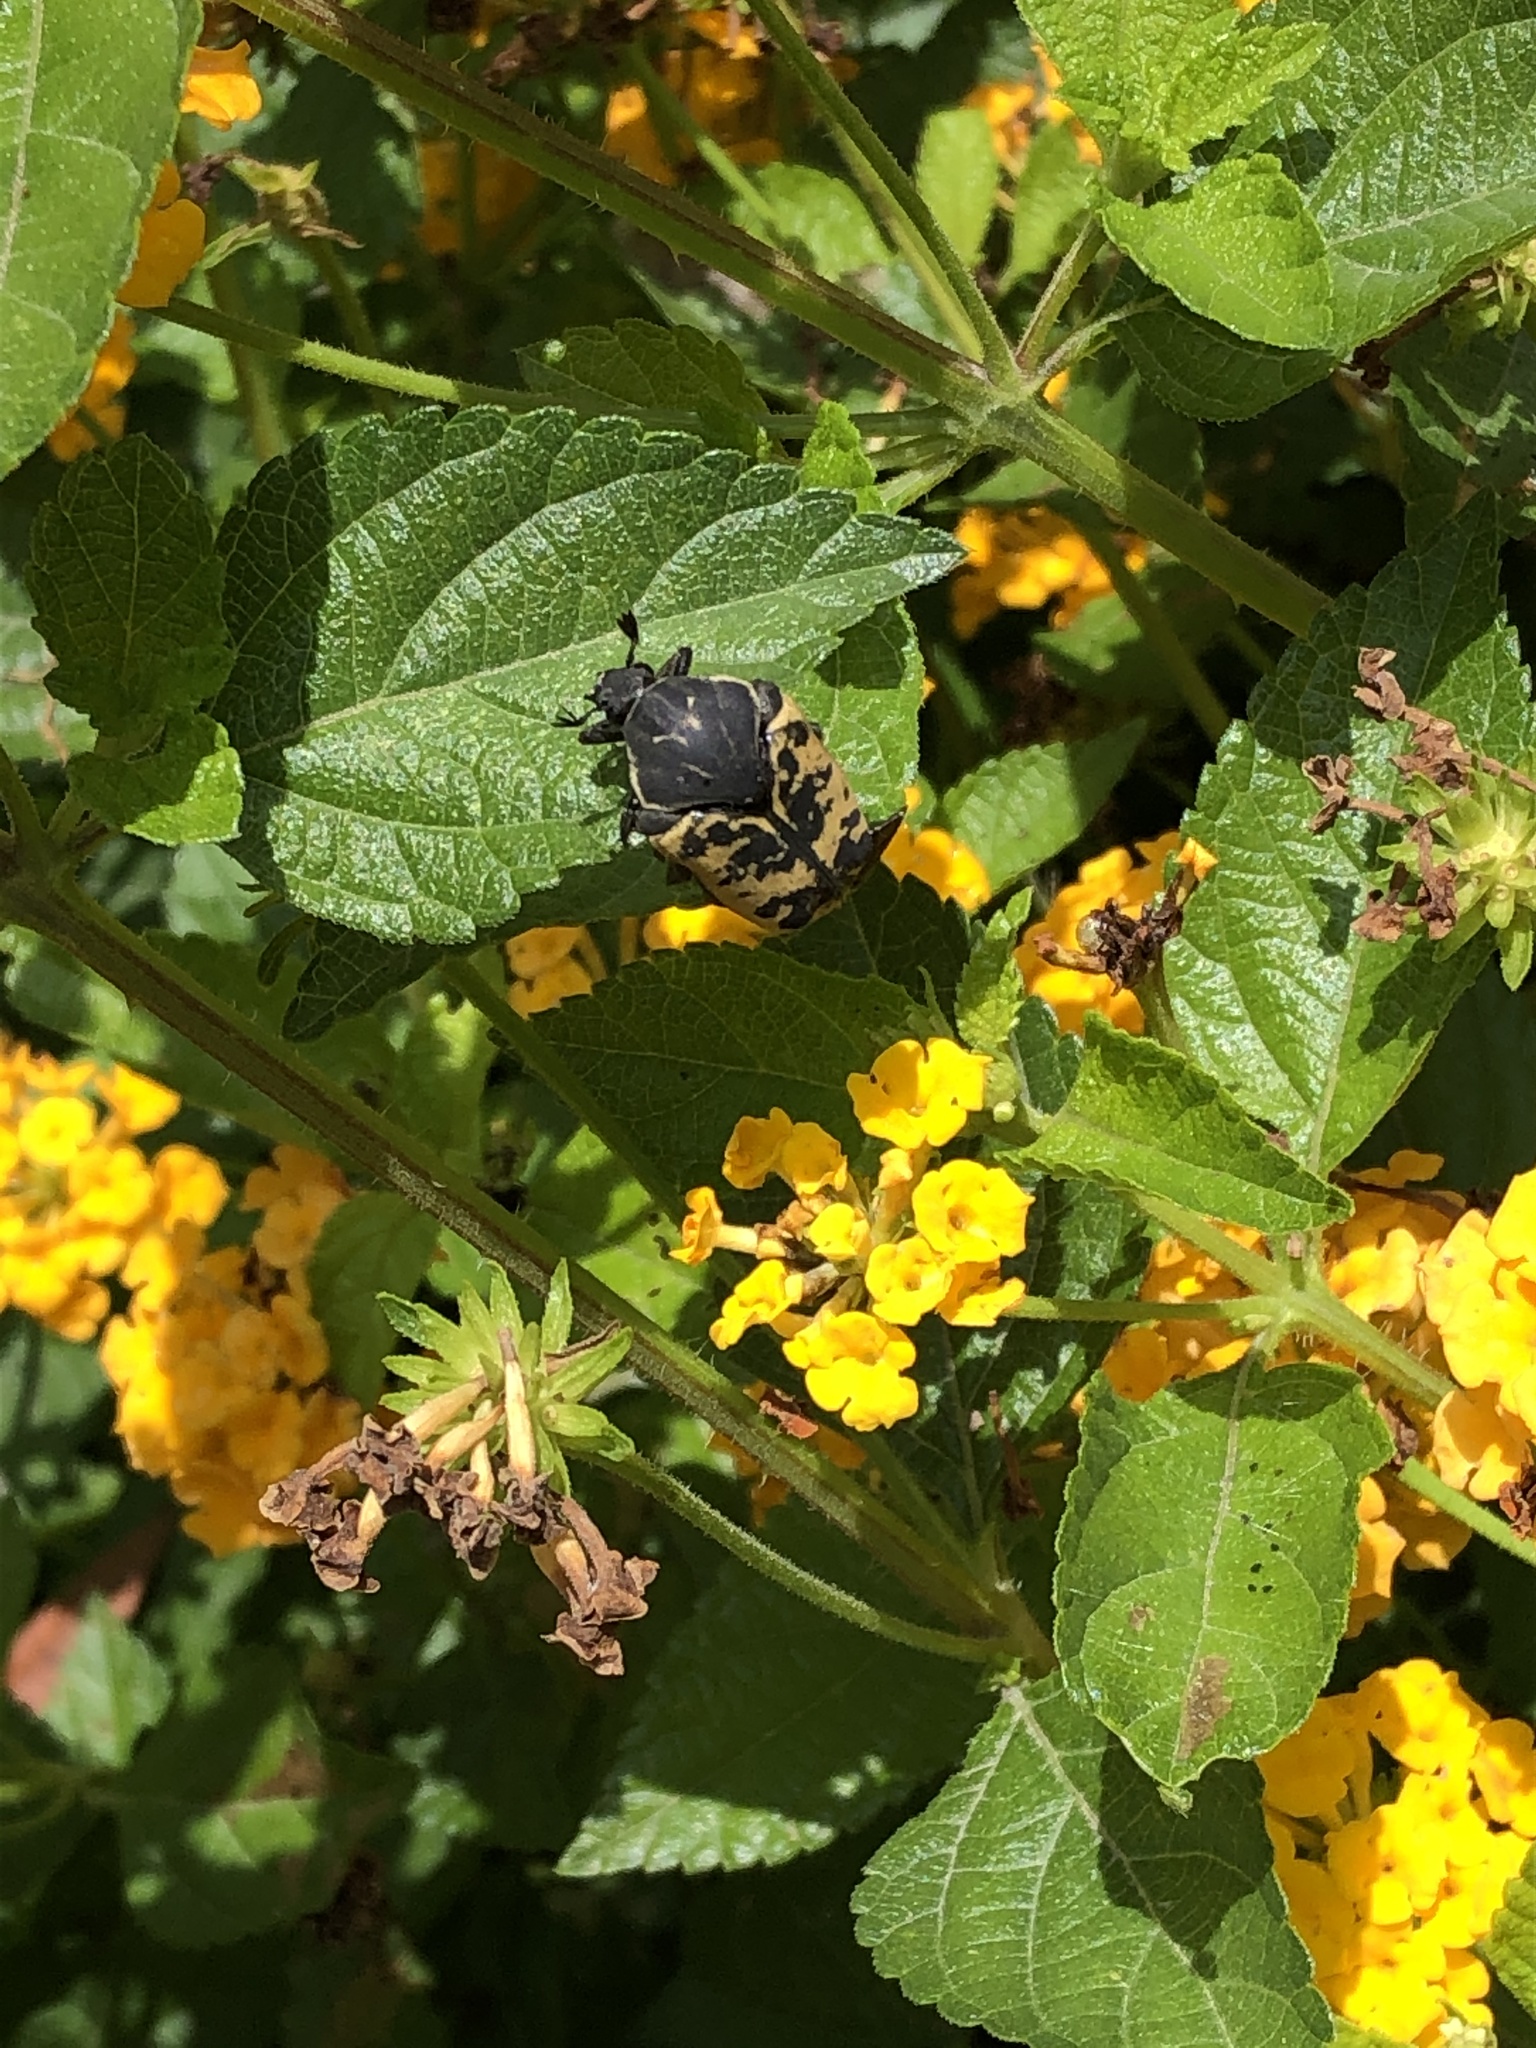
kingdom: Animalia
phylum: Arthropoda
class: Insecta
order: Coleoptera
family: Scarabaeidae
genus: Gymnetis
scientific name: Gymnetis merops
